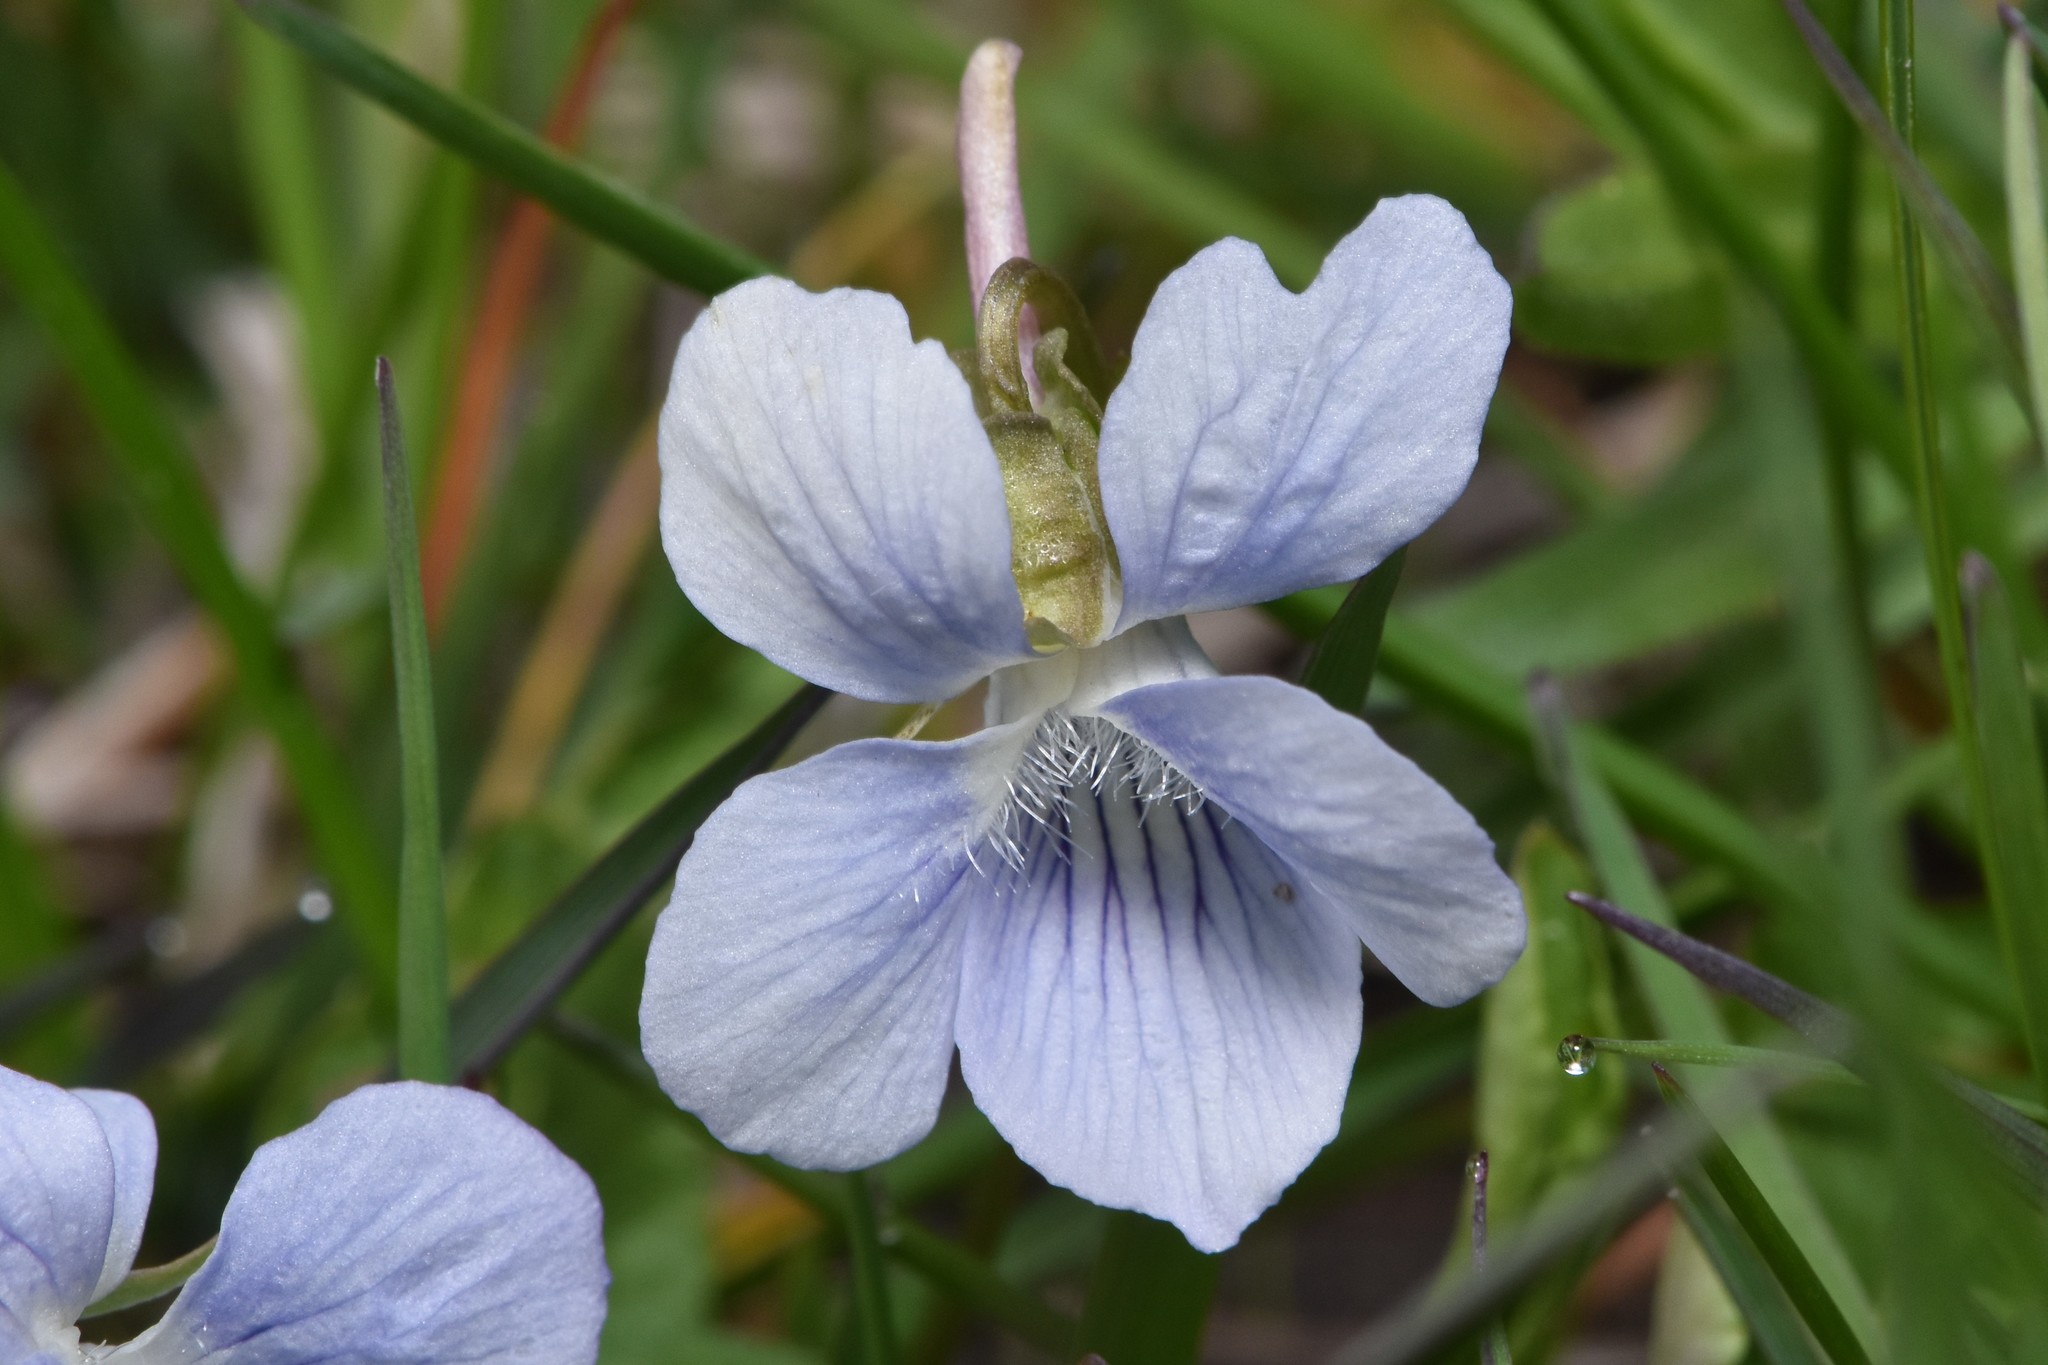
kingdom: Plantae
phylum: Tracheophyta
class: Magnoliopsida
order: Malpighiales
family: Violaceae
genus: Viola
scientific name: Viola adunca
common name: Sand violet
